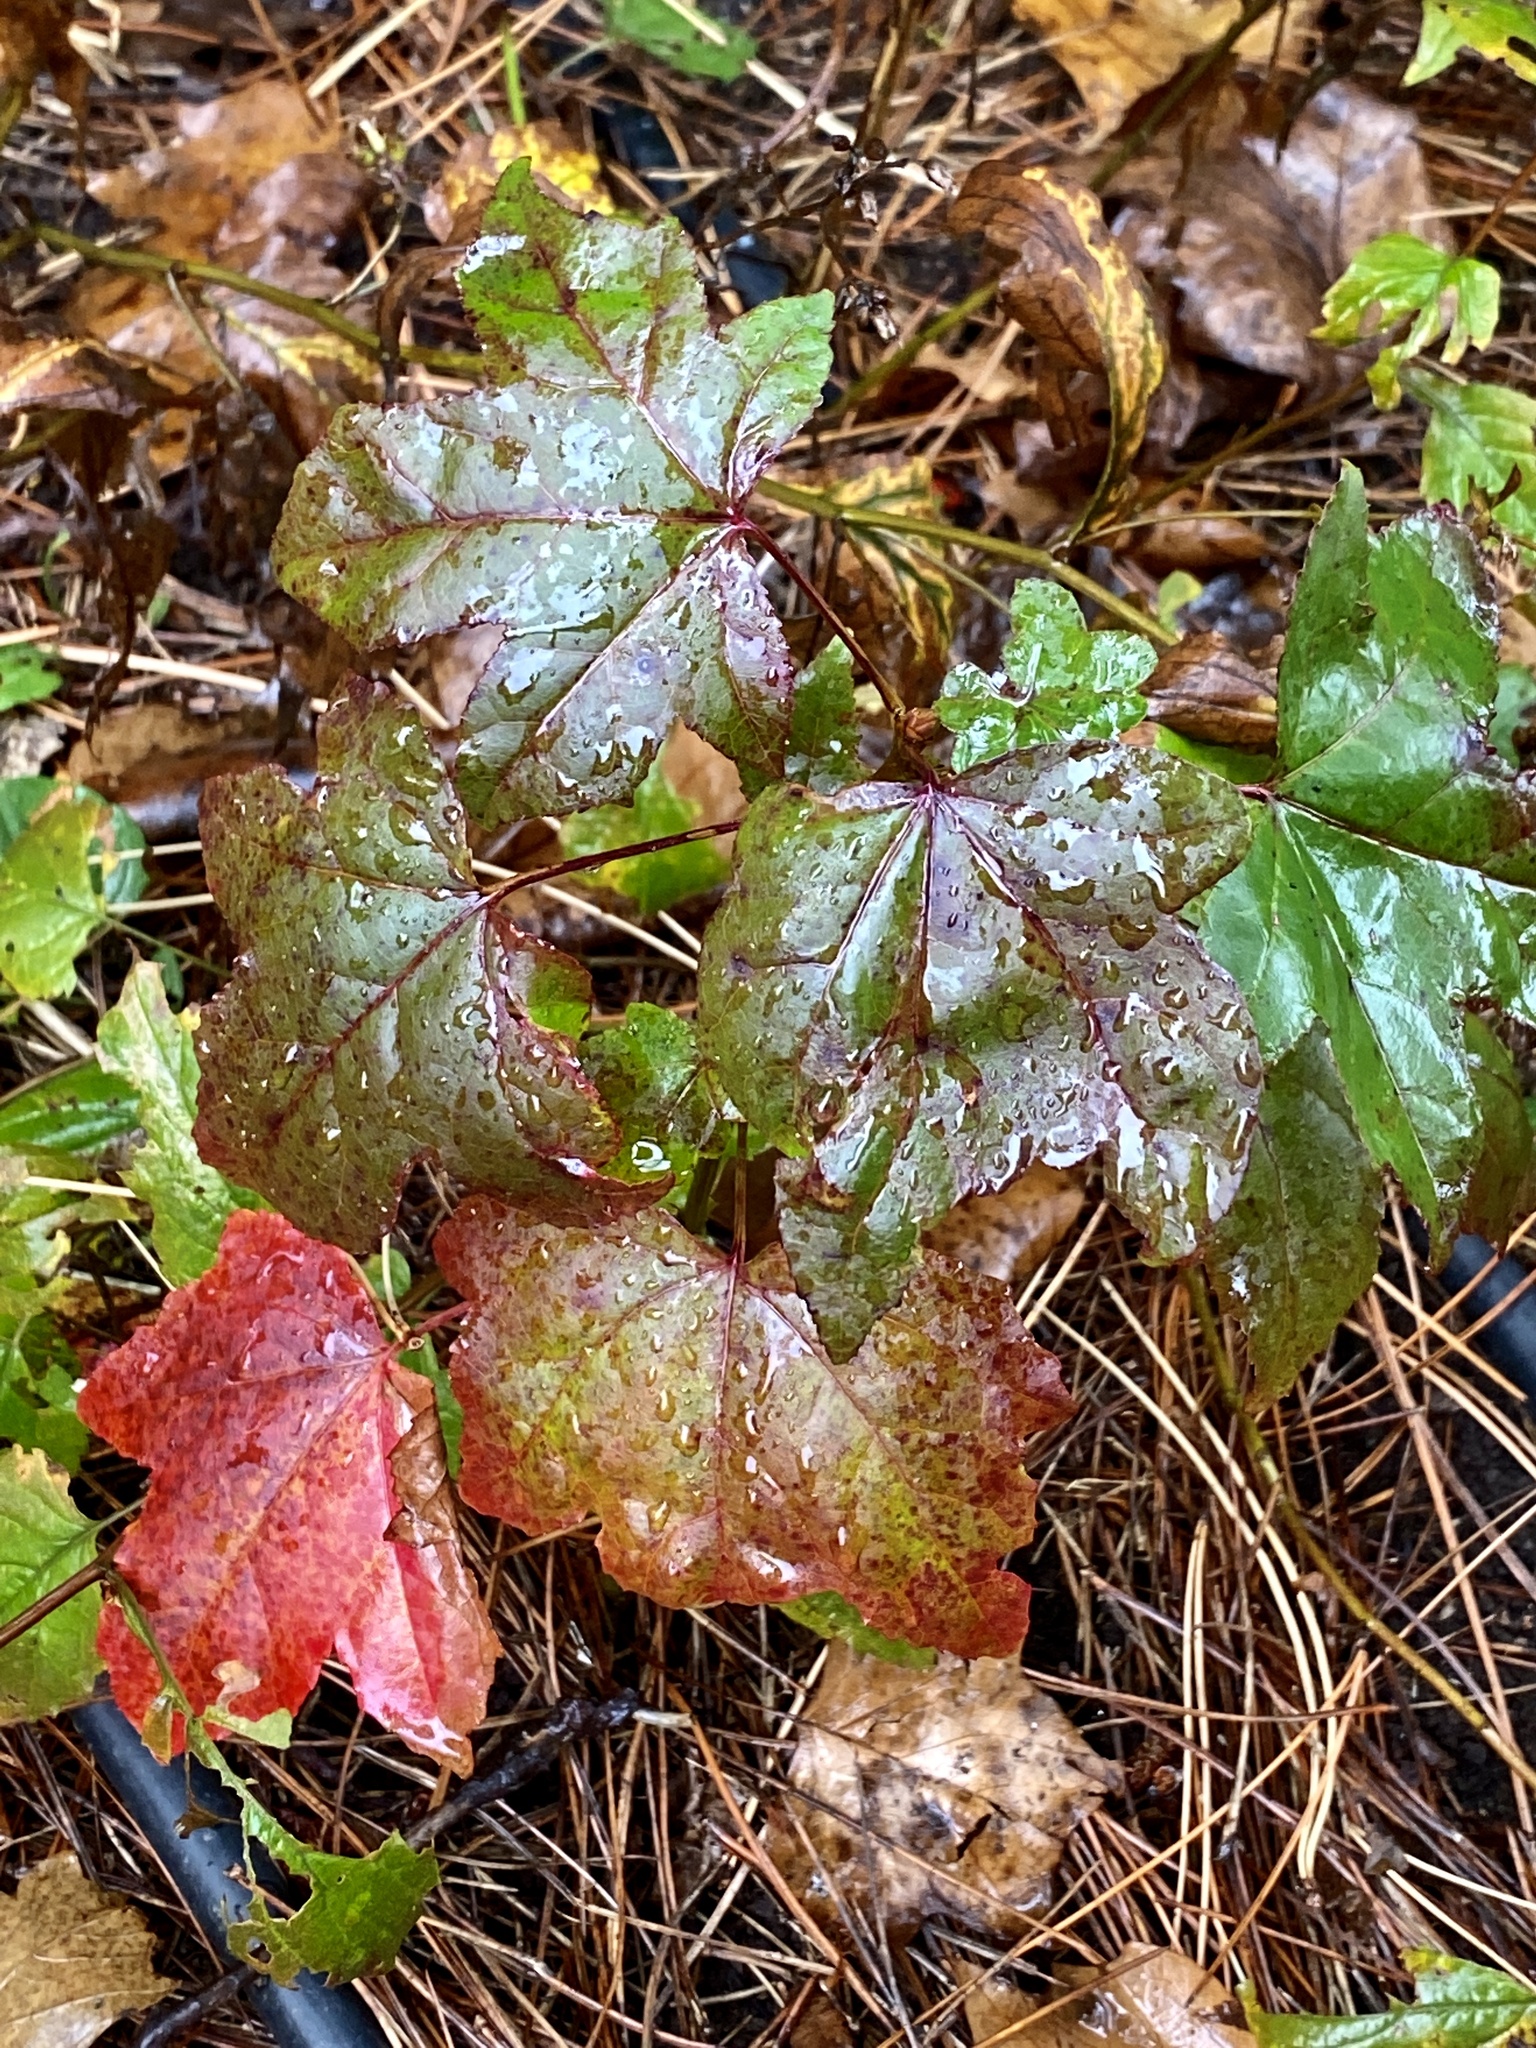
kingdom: Plantae
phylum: Tracheophyta
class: Magnoliopsida
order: Saxifragales
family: Altingiaceae
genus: Liquidambar
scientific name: Liquidambar styraciflua
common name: Sweet gum
